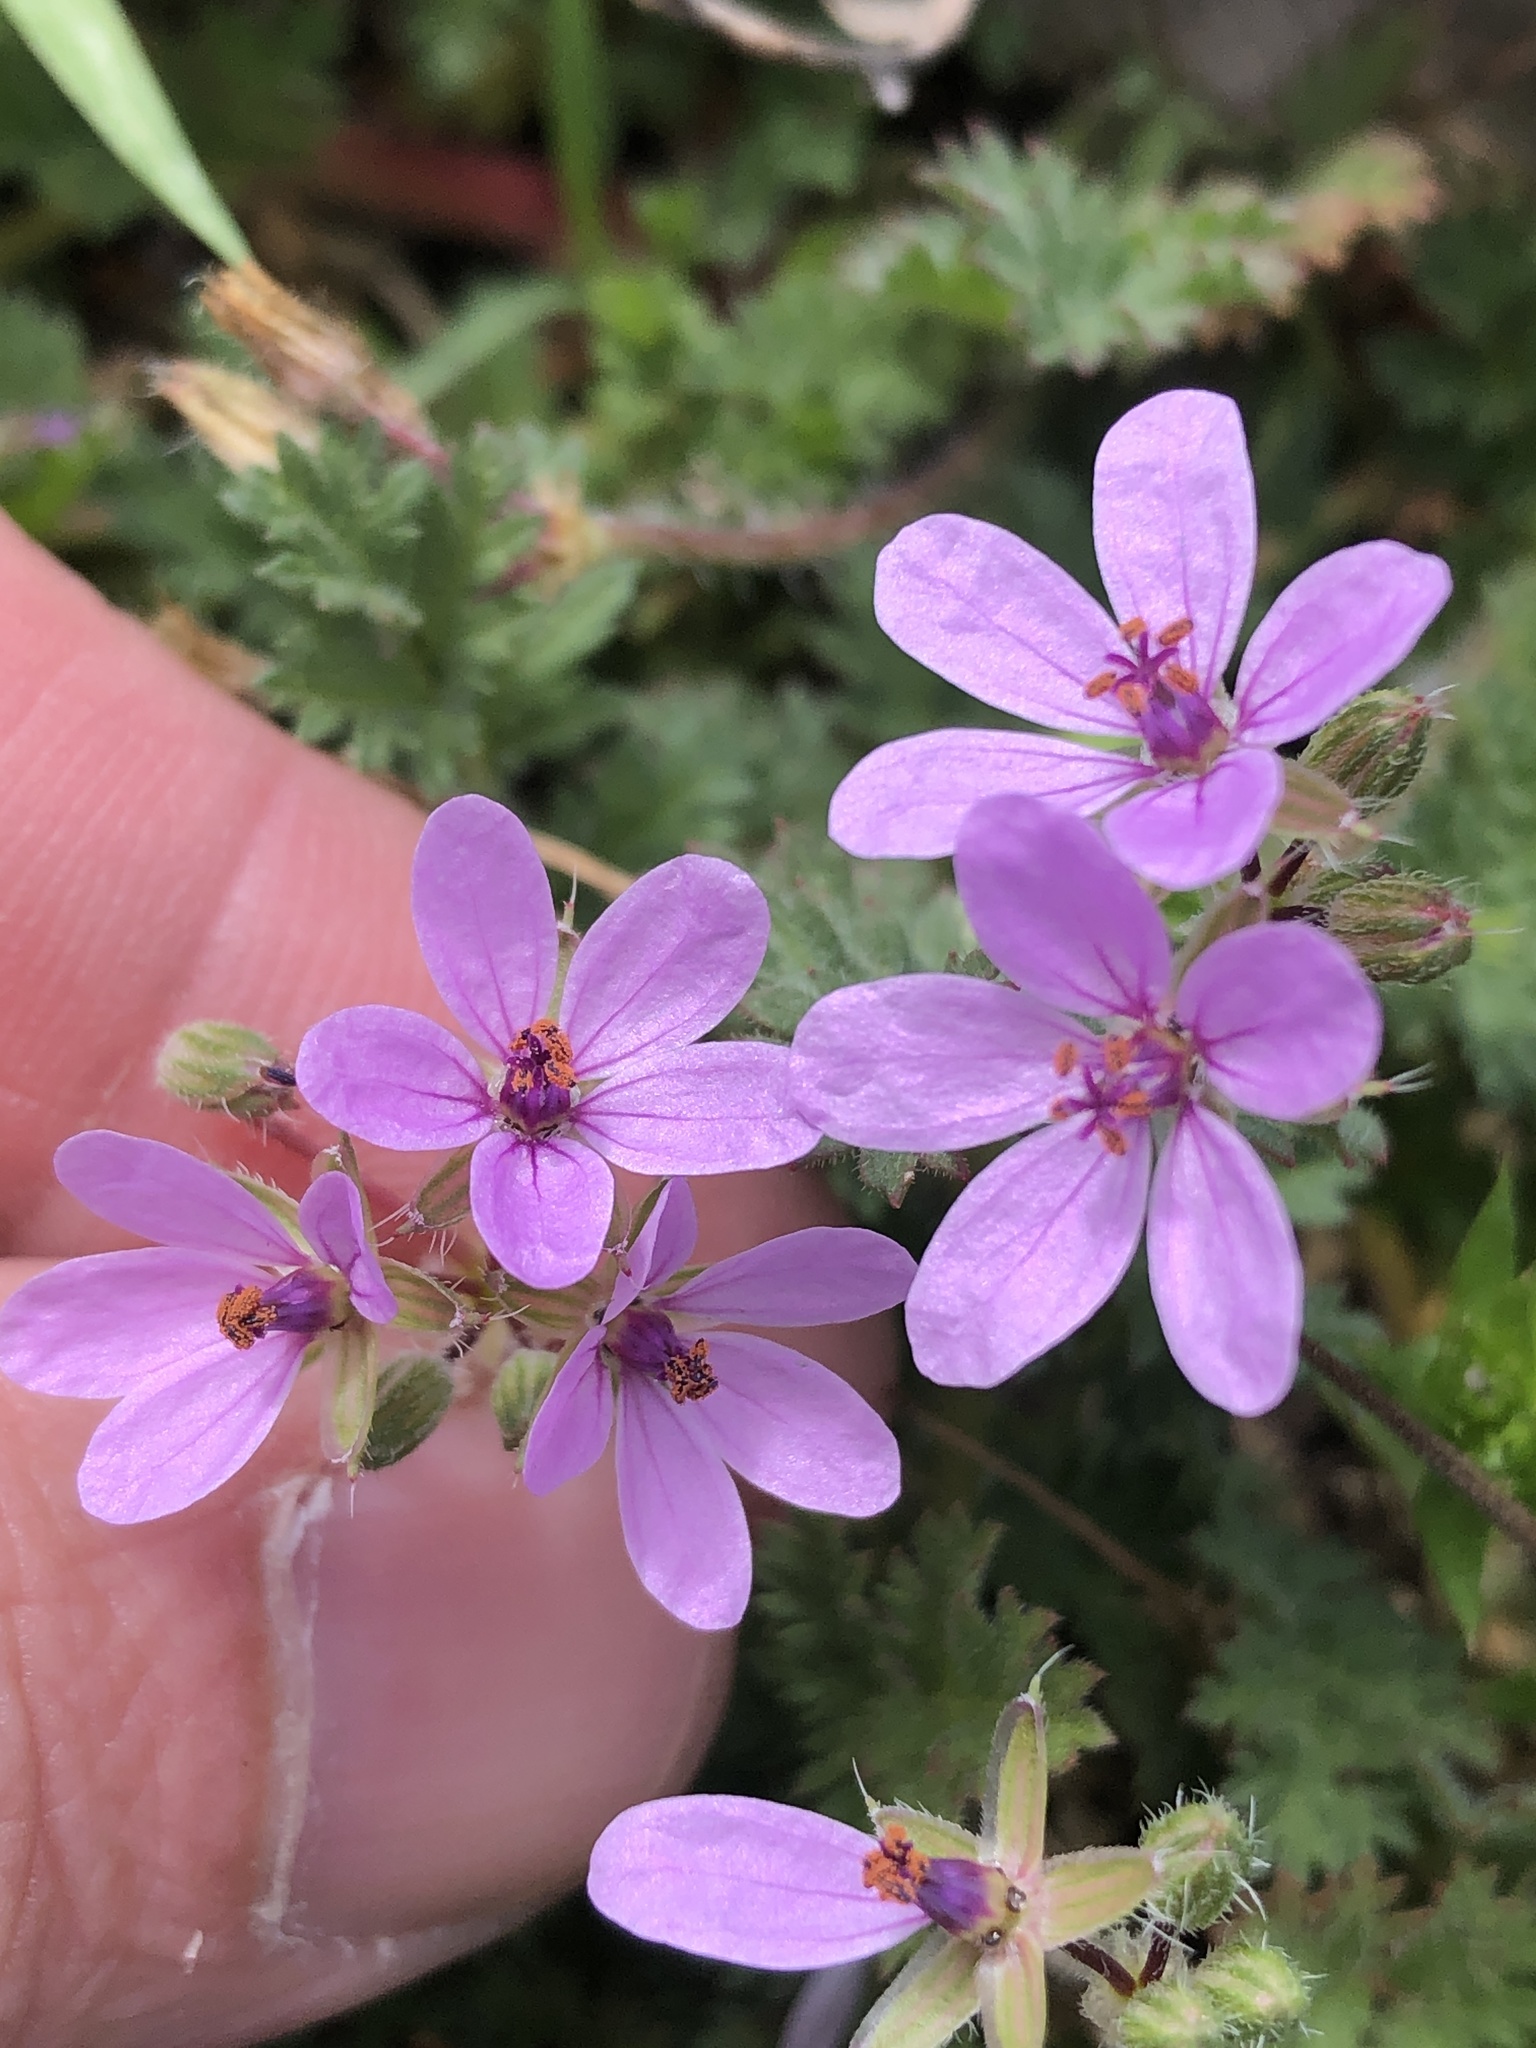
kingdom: Plantae
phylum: Tracheophyta
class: Magnoliopsida
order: Geraniales
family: Geraniaceae
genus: Erodium
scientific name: Erodium cicutarium
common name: Common stork's-bill
